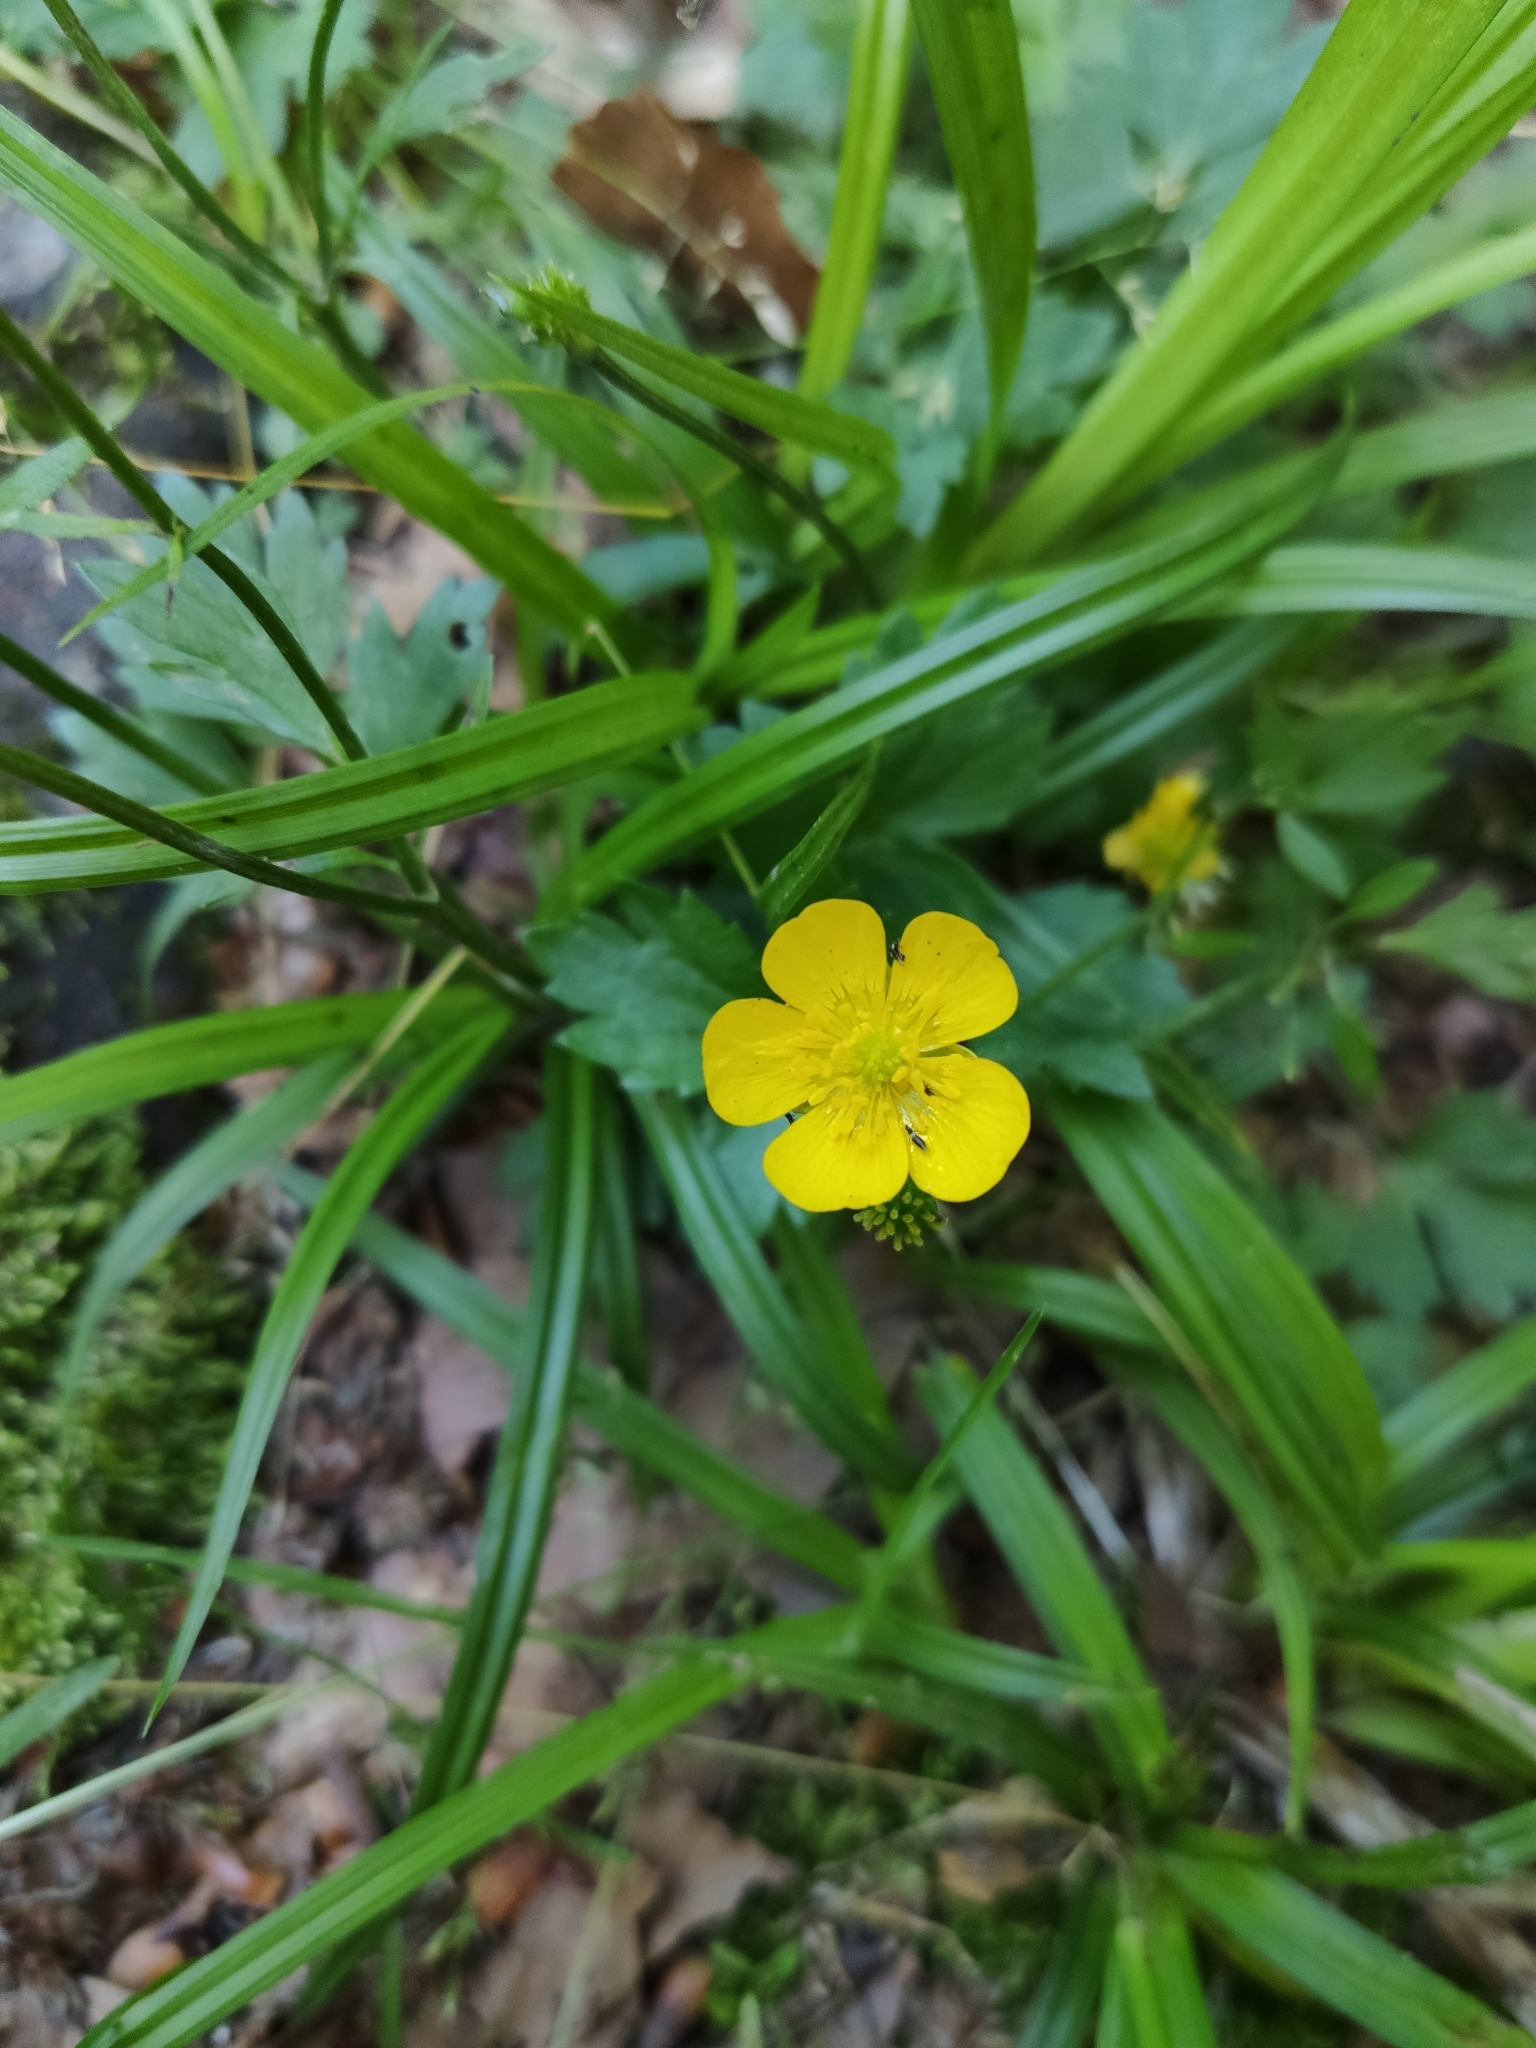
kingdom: Plantae
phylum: Tracheophyta
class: Magnoliopsida
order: Ranunculales
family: Ranunculaceae
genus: Ranunculus
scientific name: Ranunculus repens
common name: Creeping buttercup
